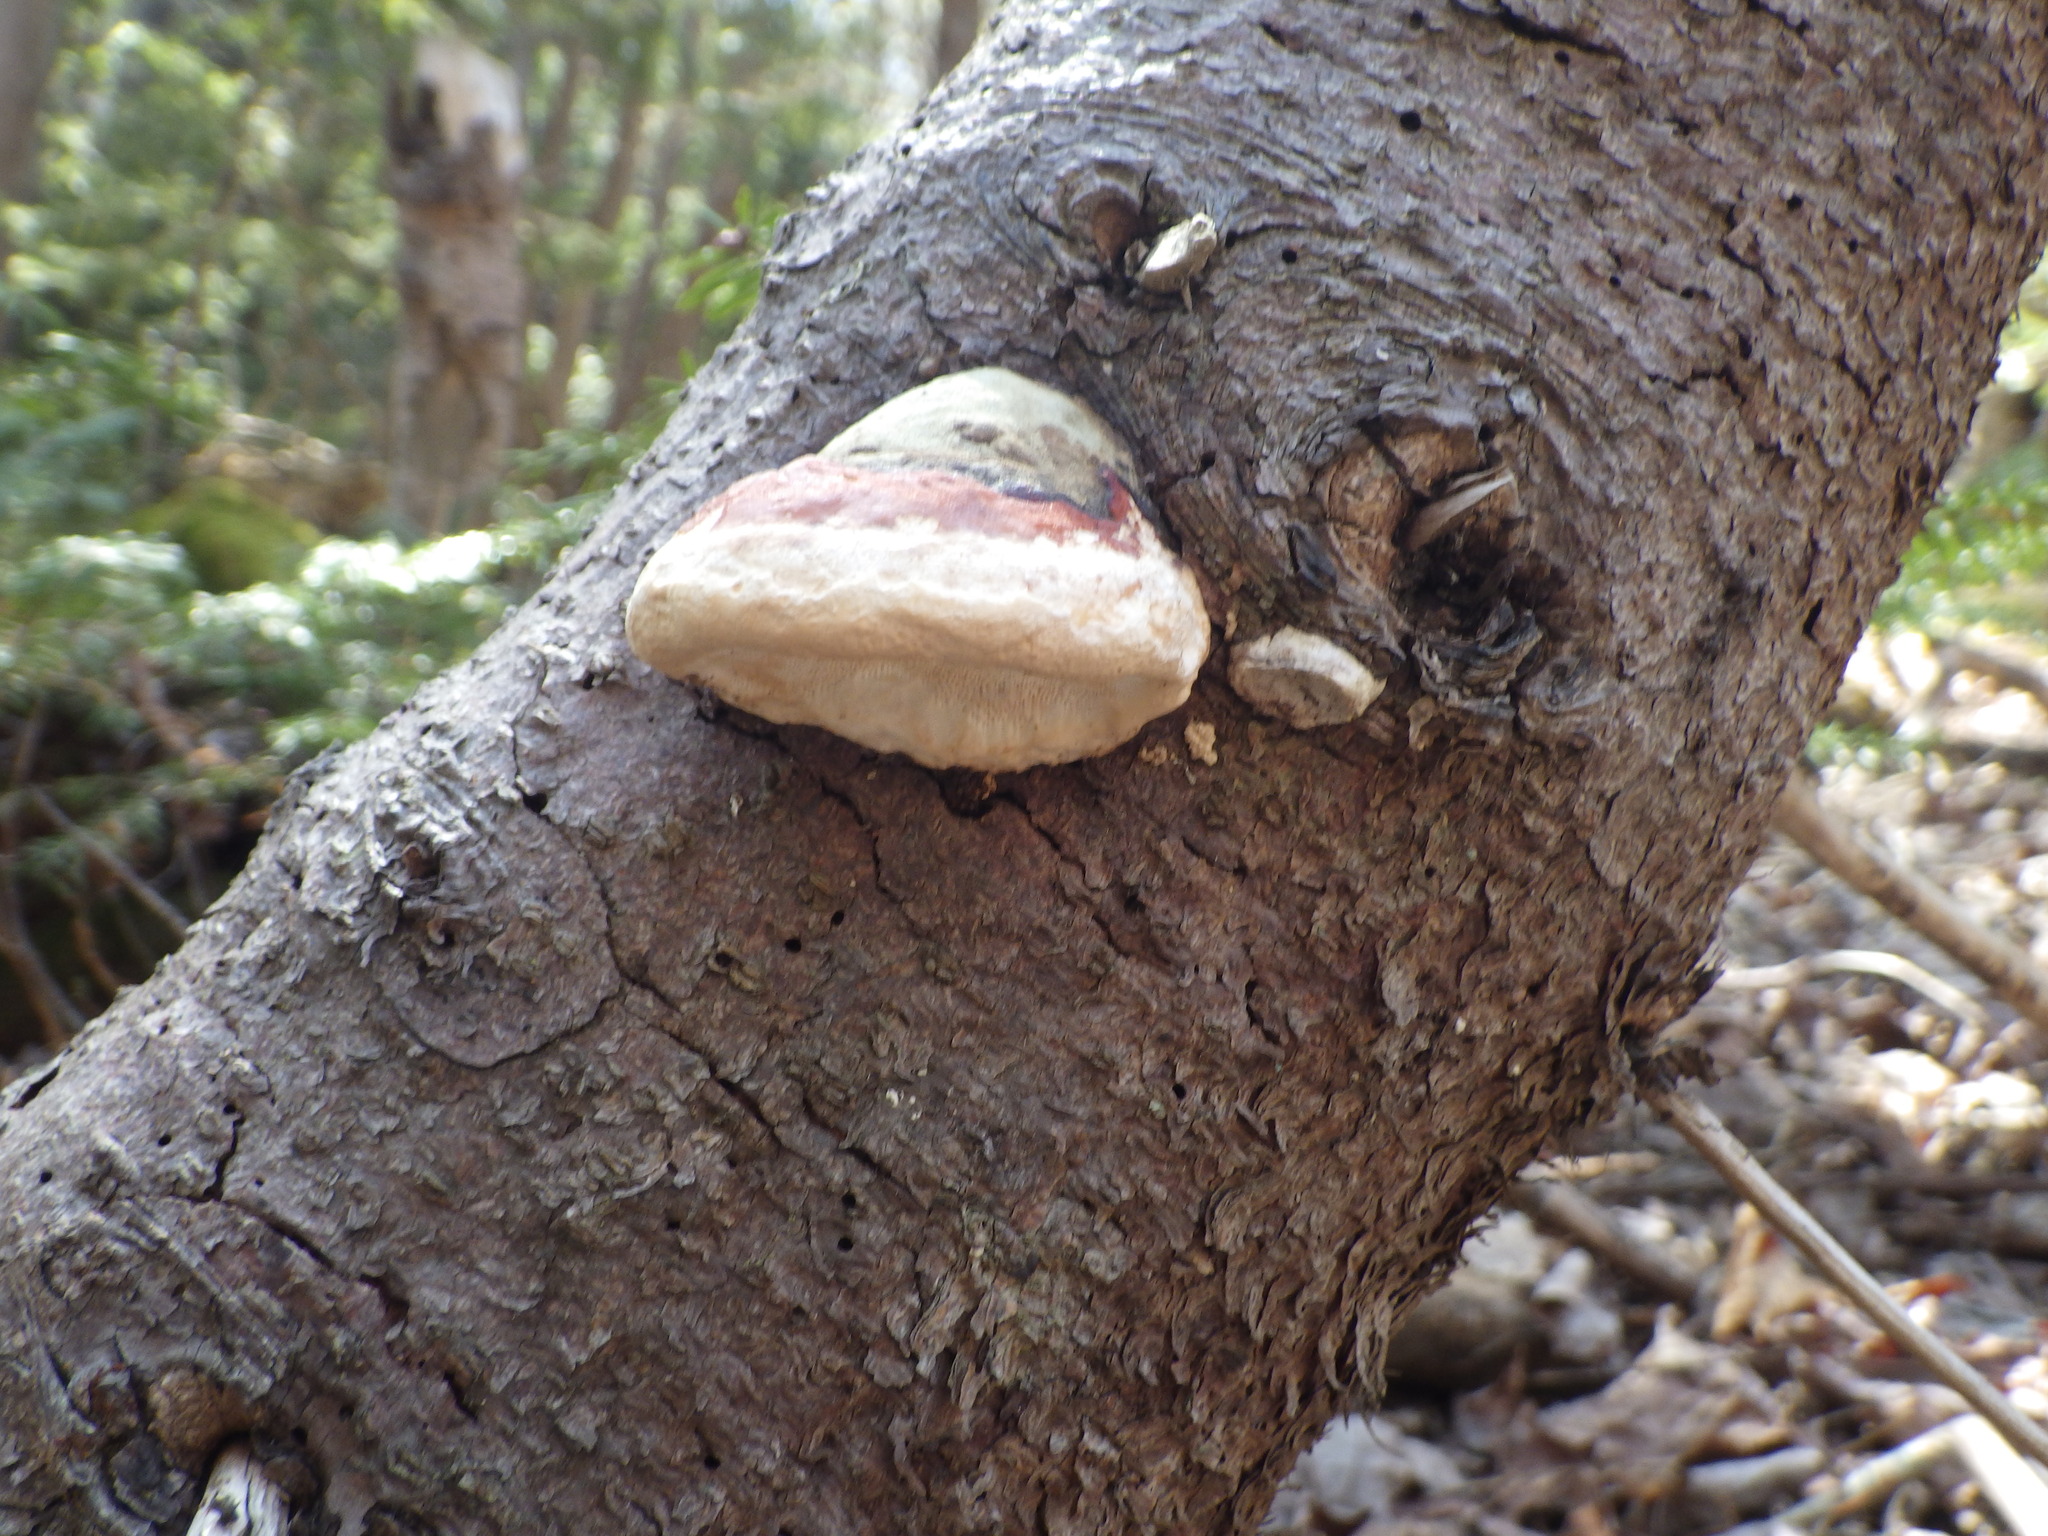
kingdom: Fungi
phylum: Basidiomycota
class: Agaricomycetes
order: Polyporales
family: Fomitopsidaceae
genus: Fomitopsis
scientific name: Fomitopsis mounceae
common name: Northern red belt
